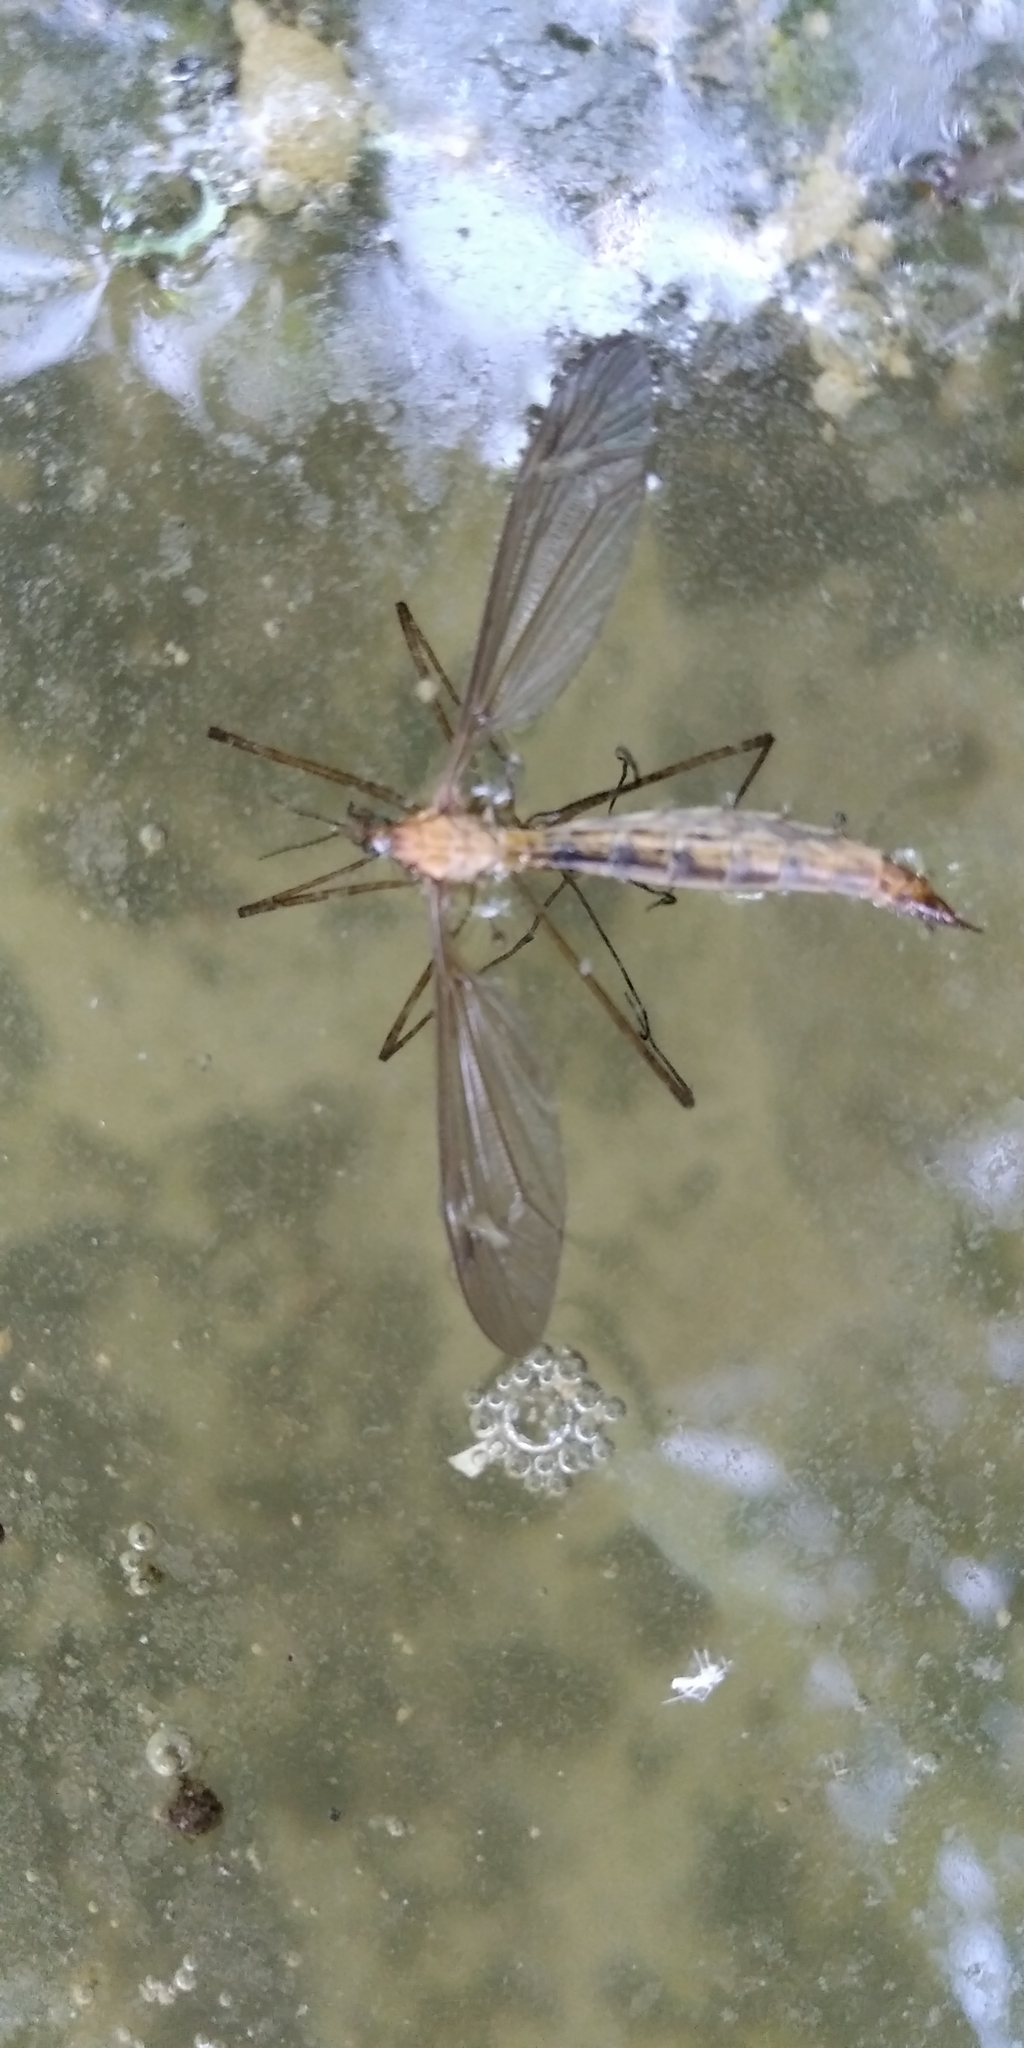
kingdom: Animalia
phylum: Arthropoda
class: Insecta
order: Diptera
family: Tipulidae
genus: Tipula
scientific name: Tipula
